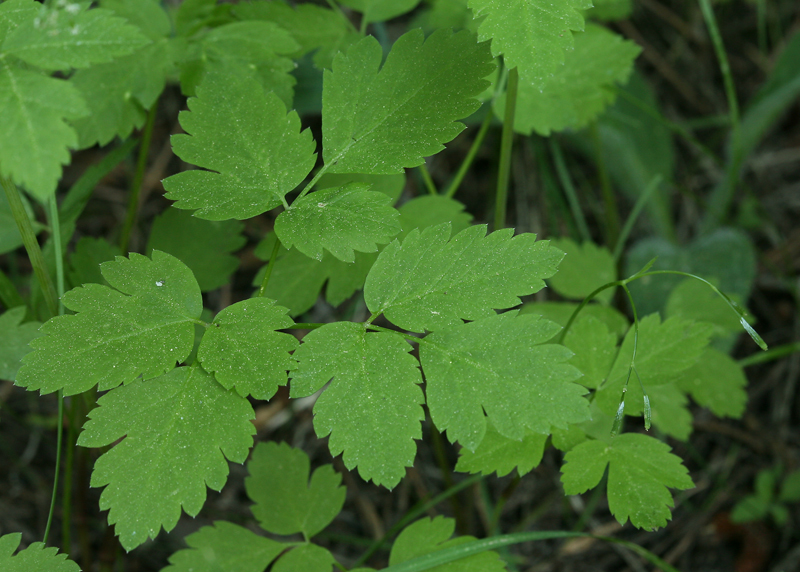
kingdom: Plantae
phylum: Tracheophyta
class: Magnoliopsida
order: Apiales
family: Apiaceae
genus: Osmorhiza
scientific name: Osmorhiza berteroi
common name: Mountain sweet cicely
